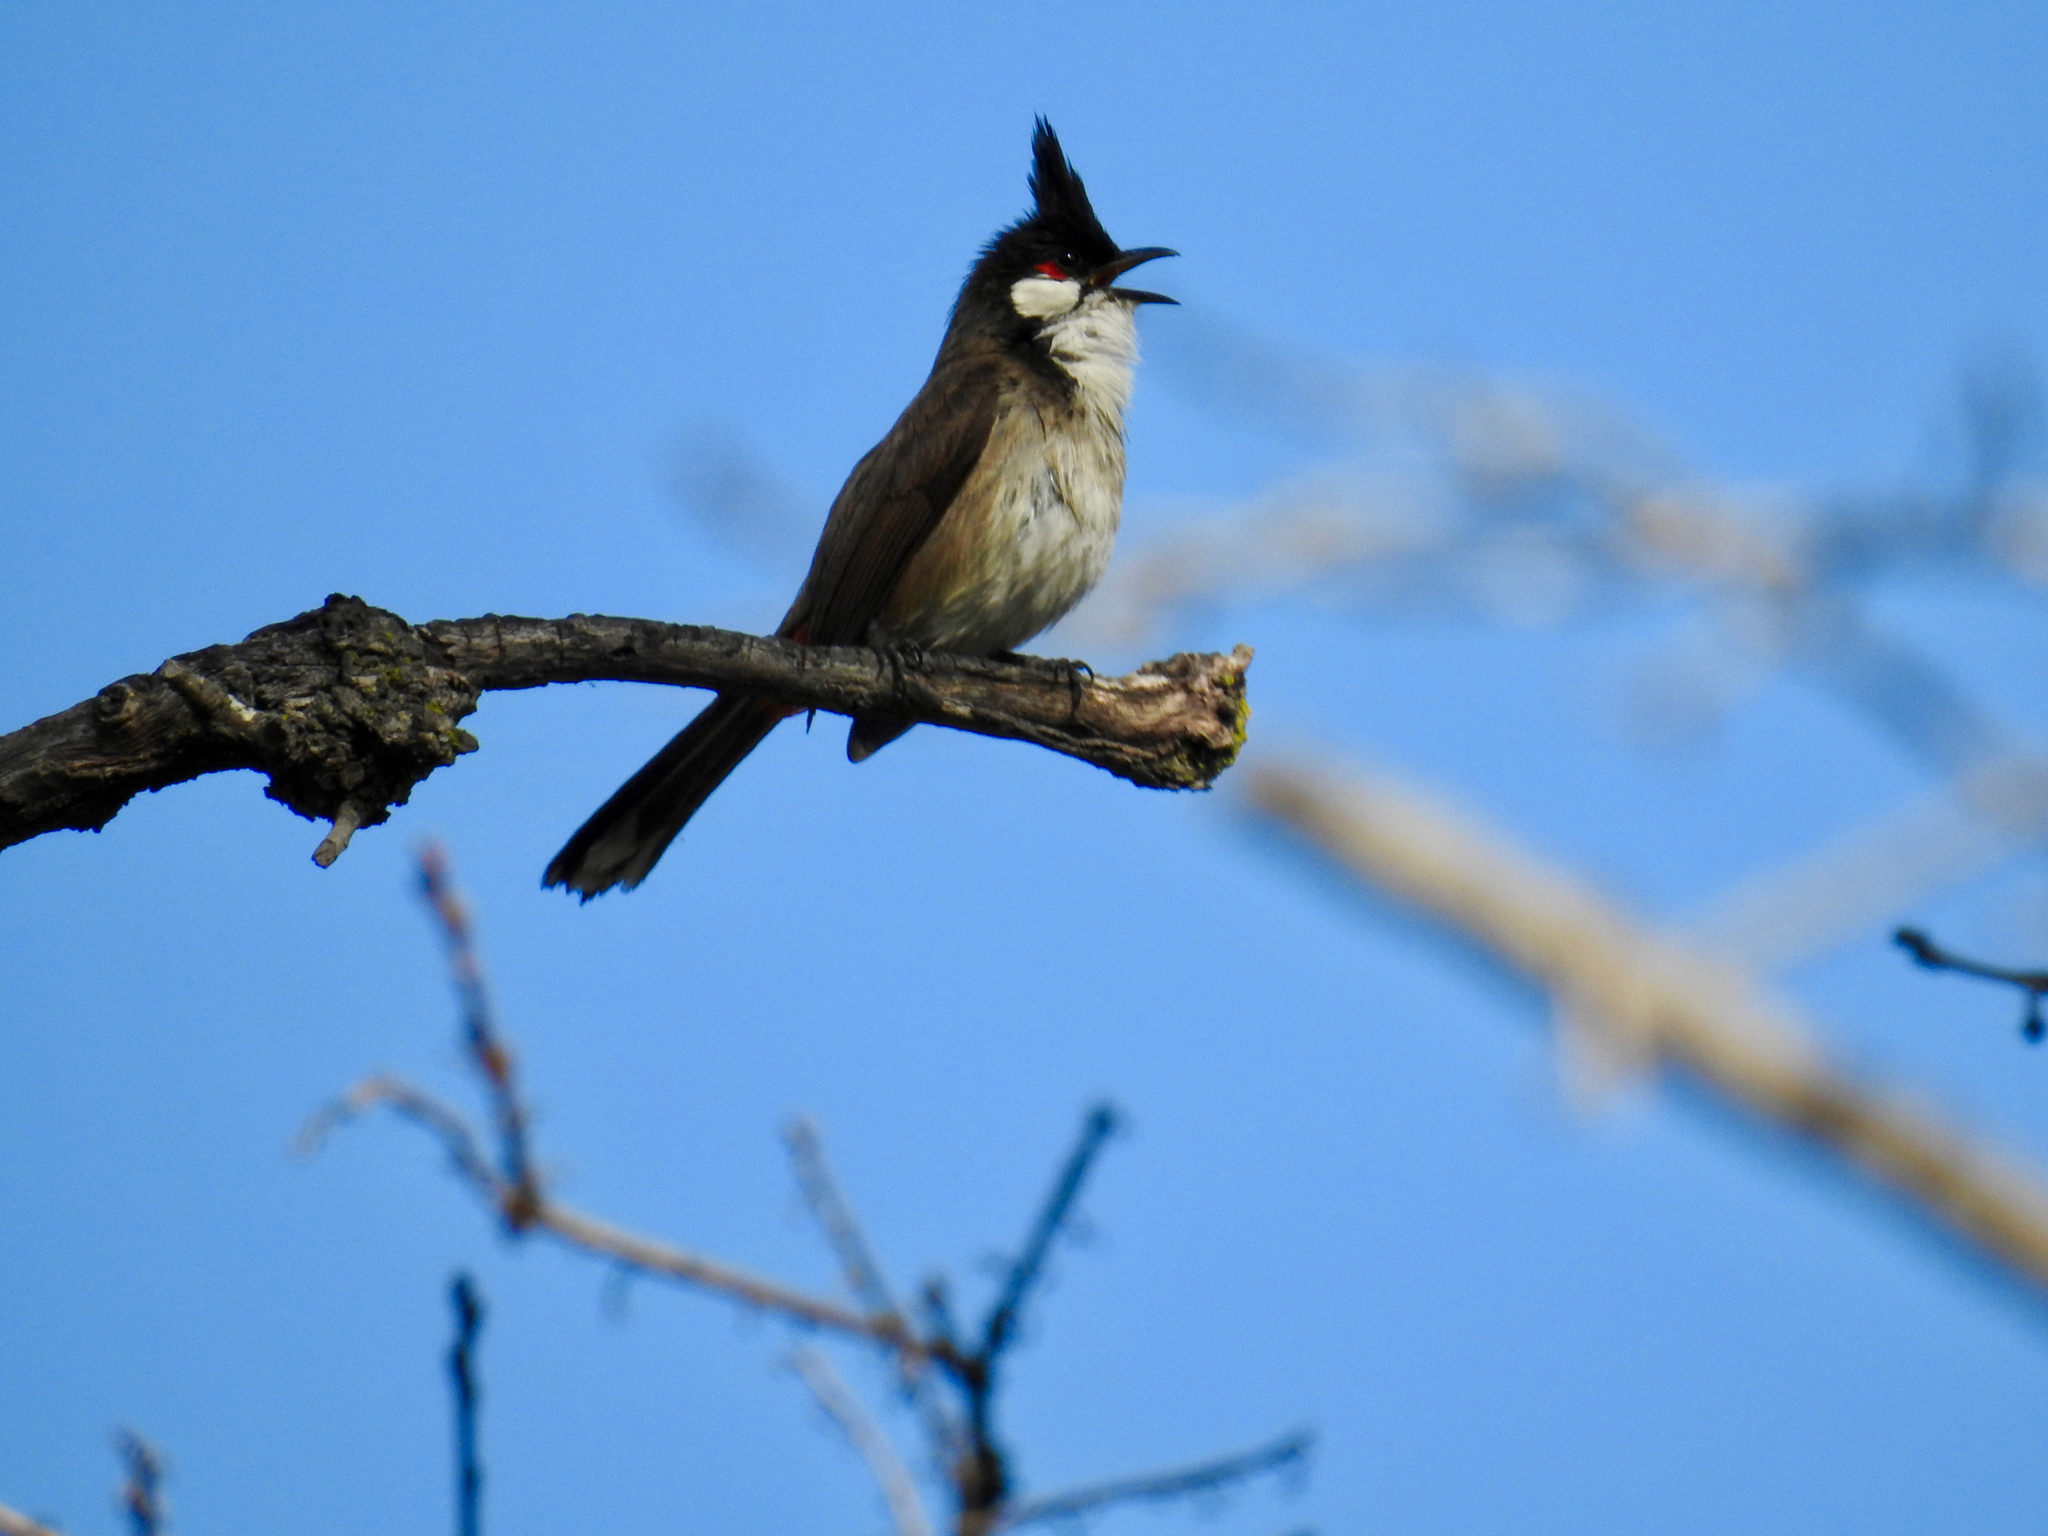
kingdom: Animalia
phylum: Chordata
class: Aves
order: Passeriformes
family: Pycnonotidae
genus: Pycnonotus
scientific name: Pycnonotus jocosus
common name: Red-whiskered bulbul
